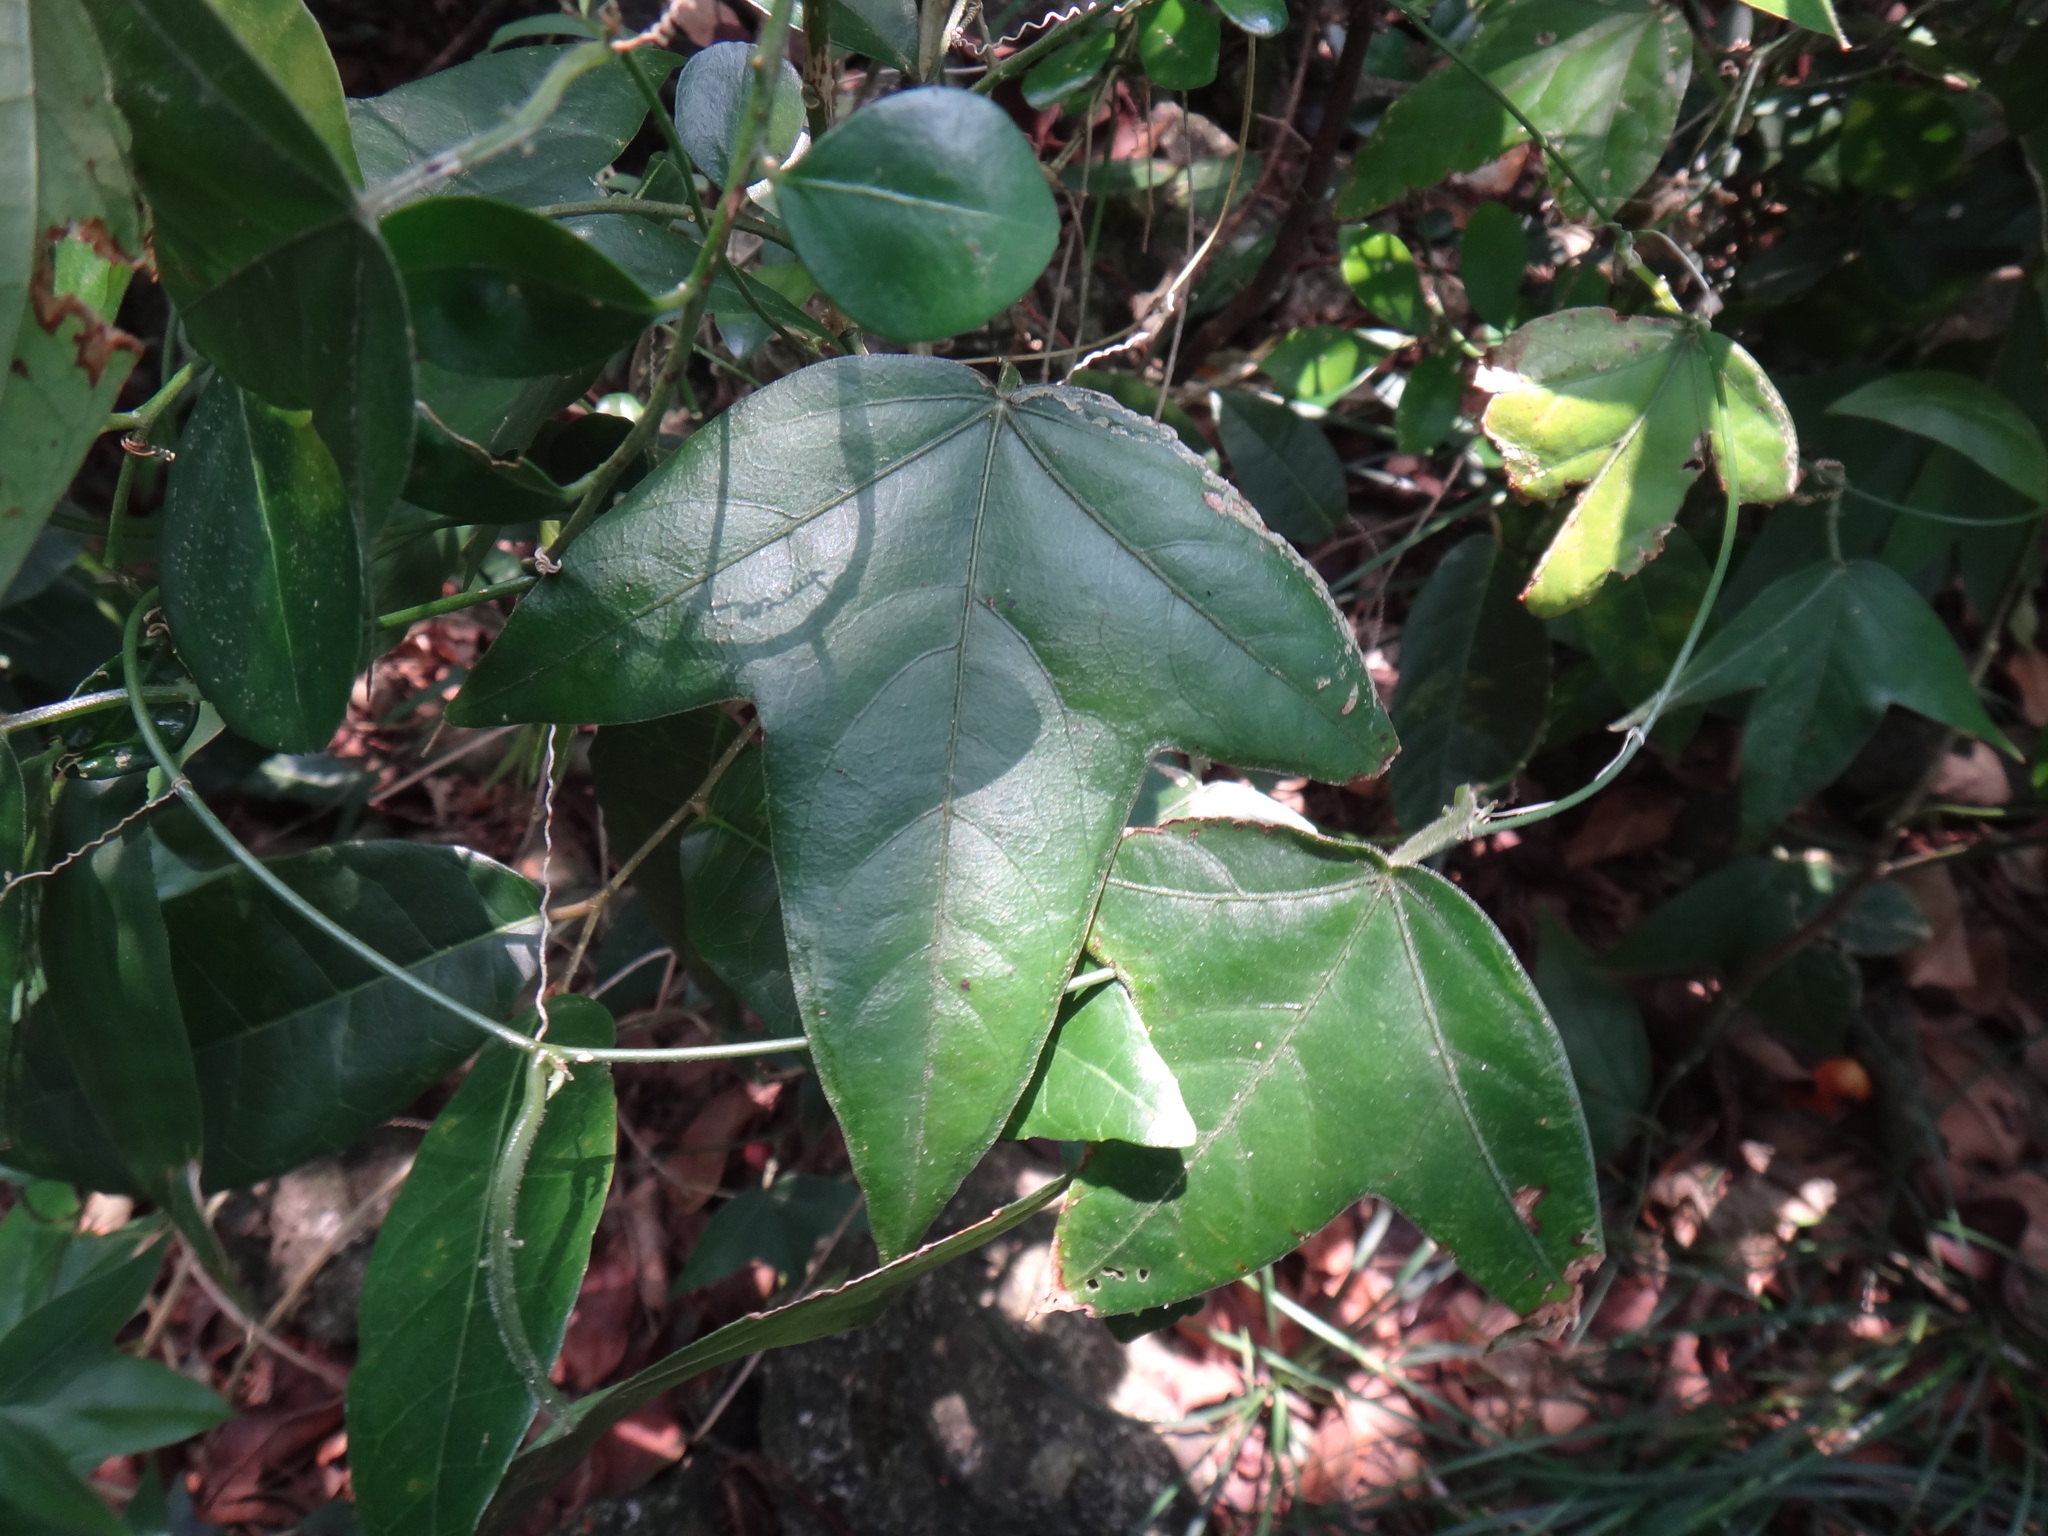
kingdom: Plantae
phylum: Tracheophyta
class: Magnoliopsida
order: Malpighiales
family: Passifloraceae
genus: Passiflora
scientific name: Passiflora suberosa
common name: Wild passionfruit
